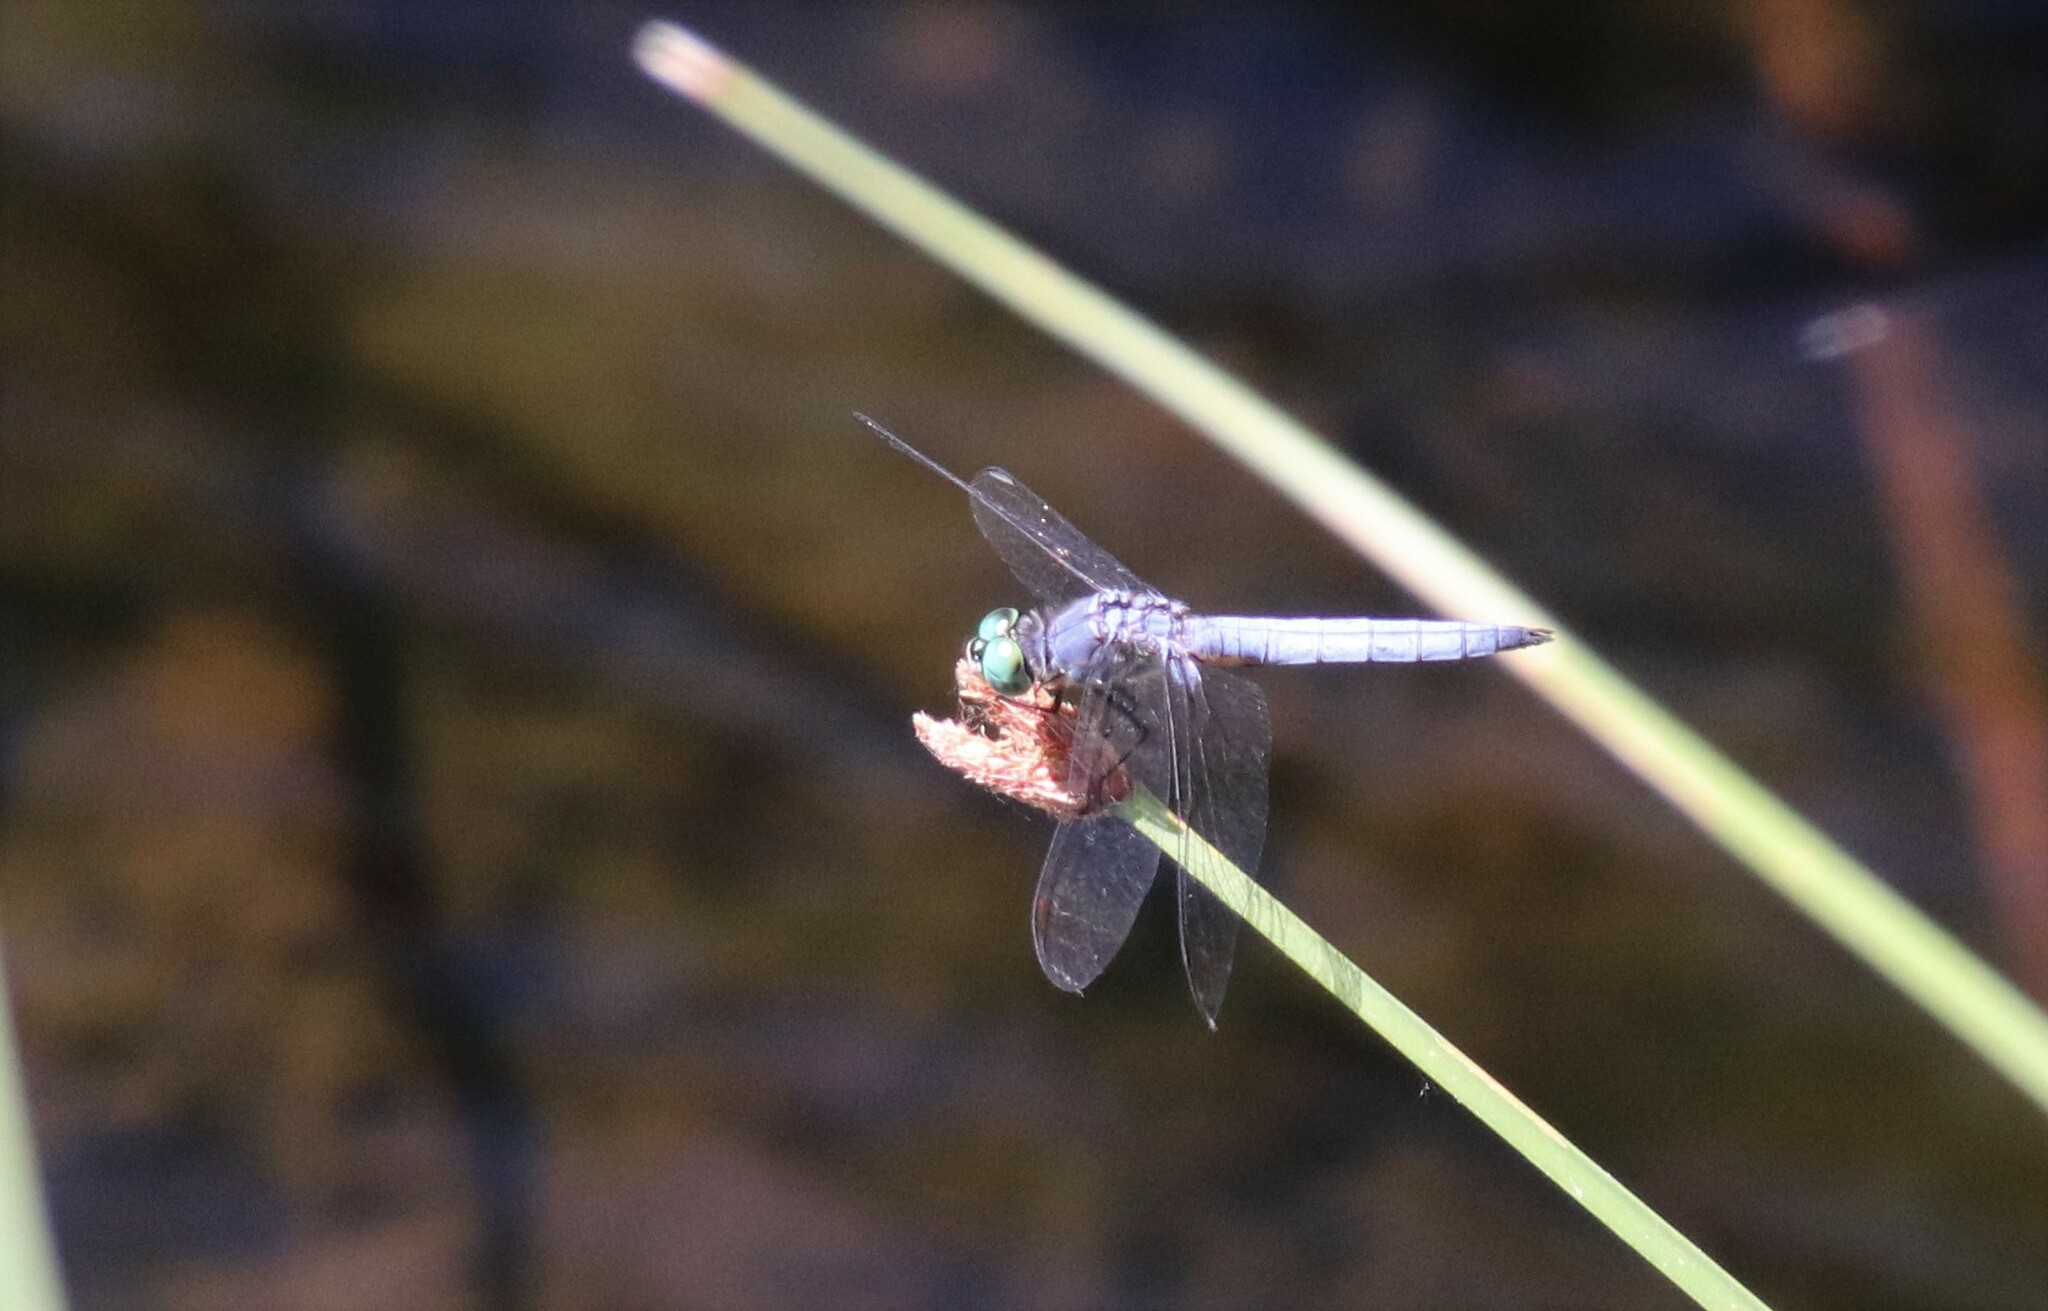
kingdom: Animalia
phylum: Arthropoda
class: Insecta
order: Odonata
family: Libellulidae
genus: Pachydiplax
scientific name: Pachydiplax longipennis
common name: Blue dasher
